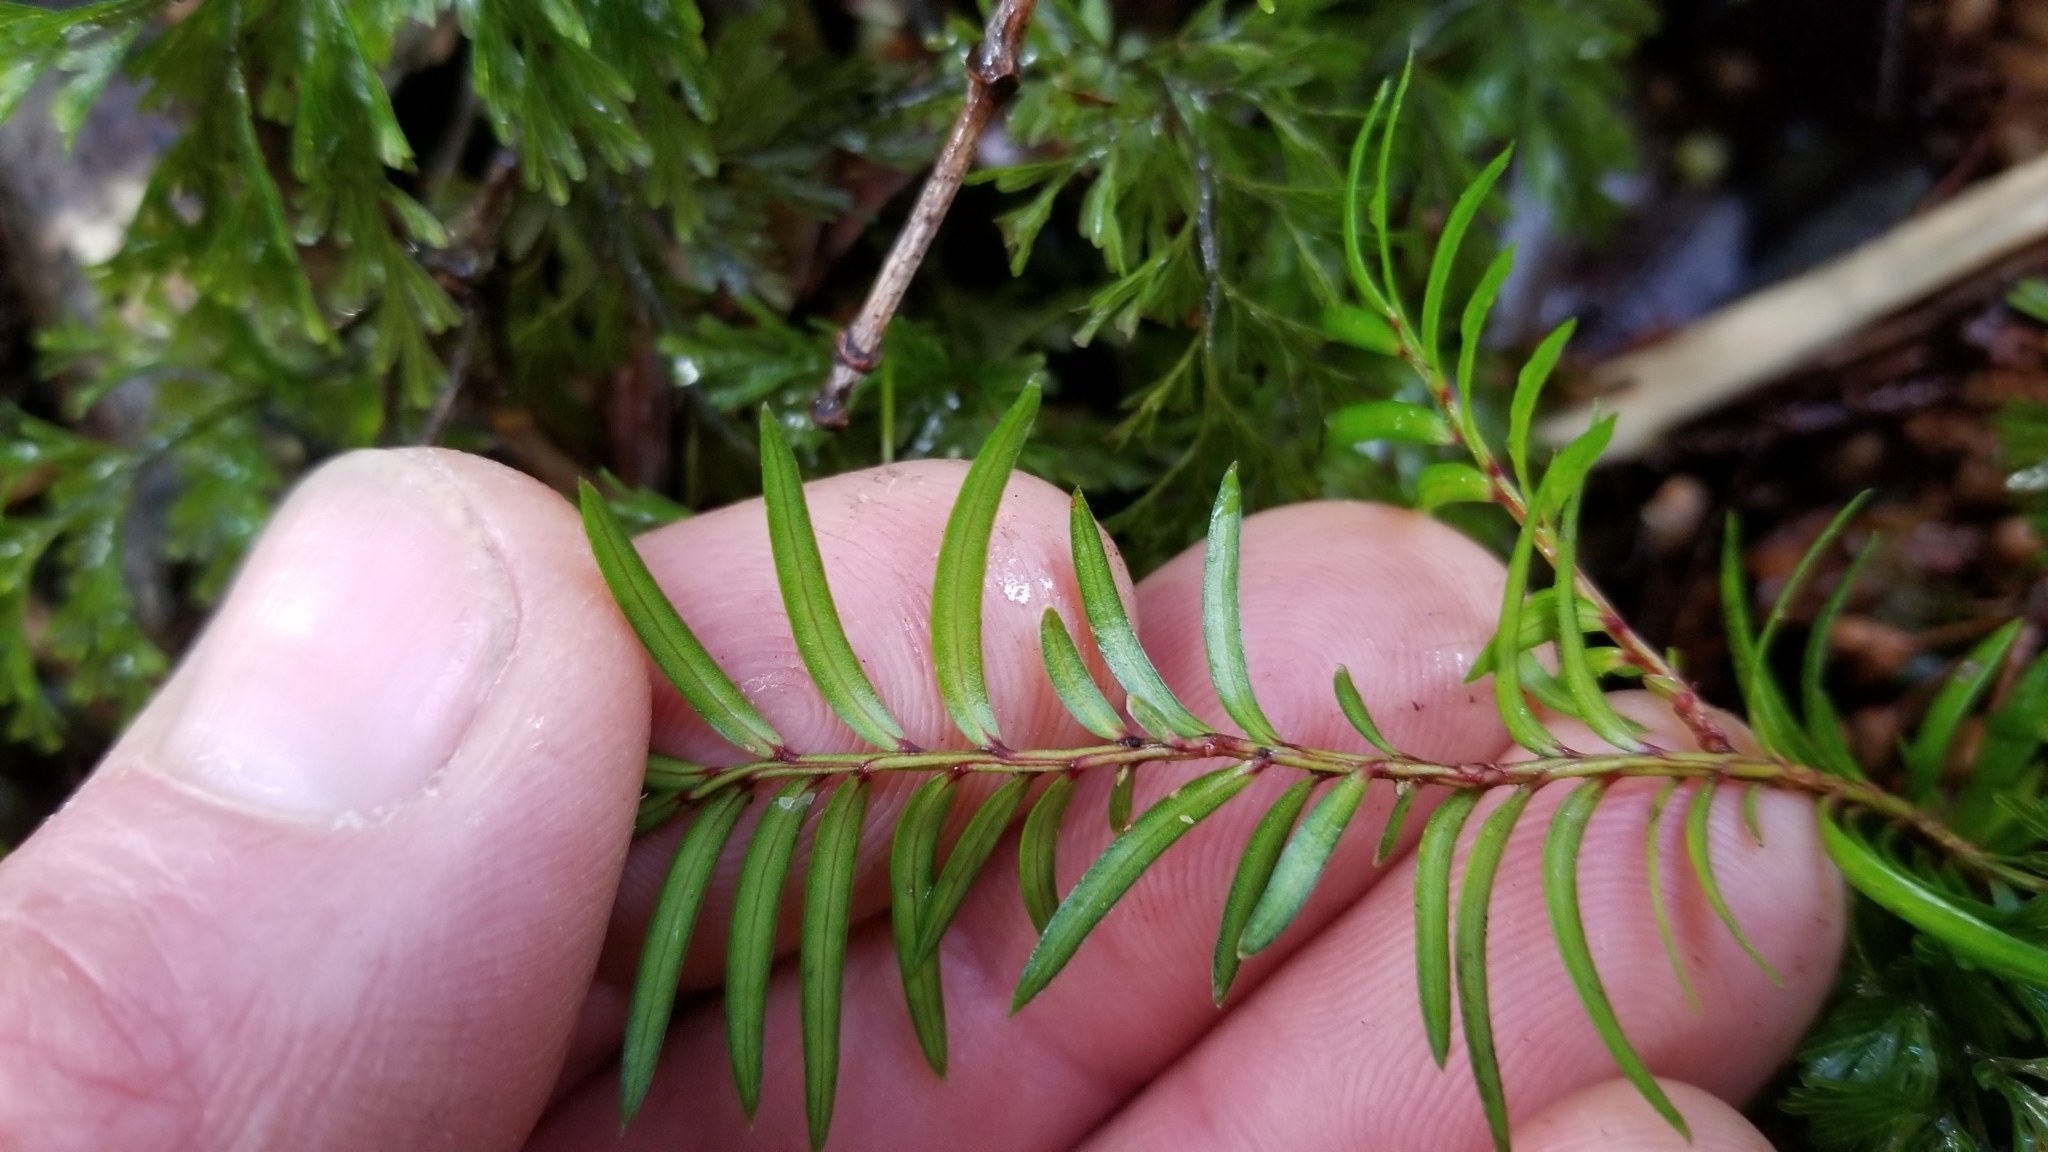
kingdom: Plantae
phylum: Tracheophyta
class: Pinopsida
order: Pinales
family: Podocarpaceae
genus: Prumnopitys
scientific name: Prumnopitys ferruginea
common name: Brown pine
